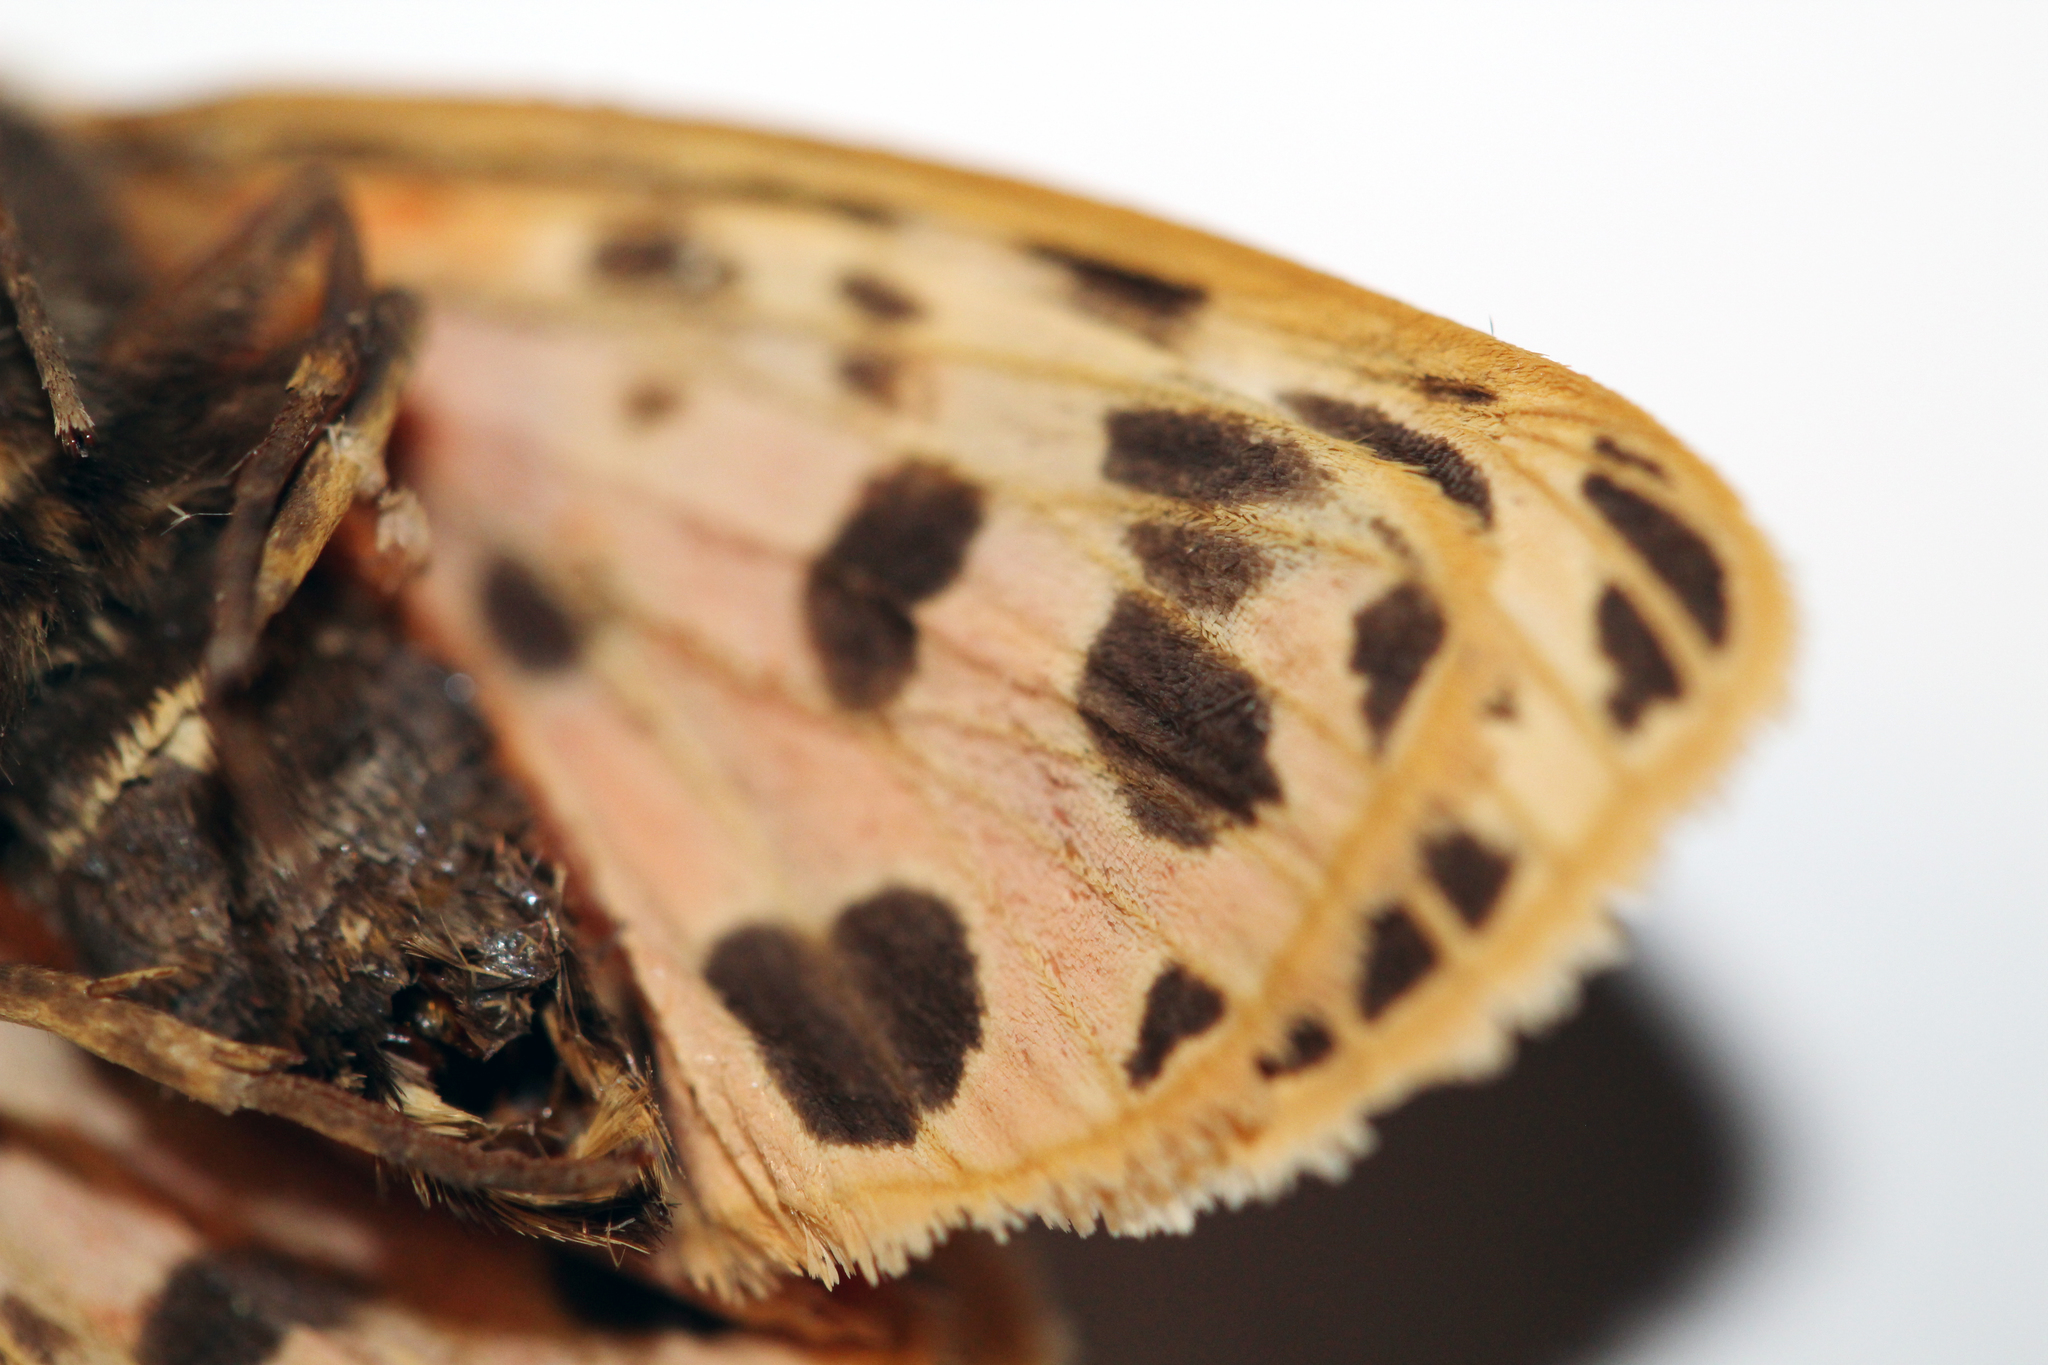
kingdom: Animalia
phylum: Arthropoda
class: Insecta
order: Lepidoptera
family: Erebidae
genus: Grammia
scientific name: Grammia virgo
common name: Virgin tiger moth
